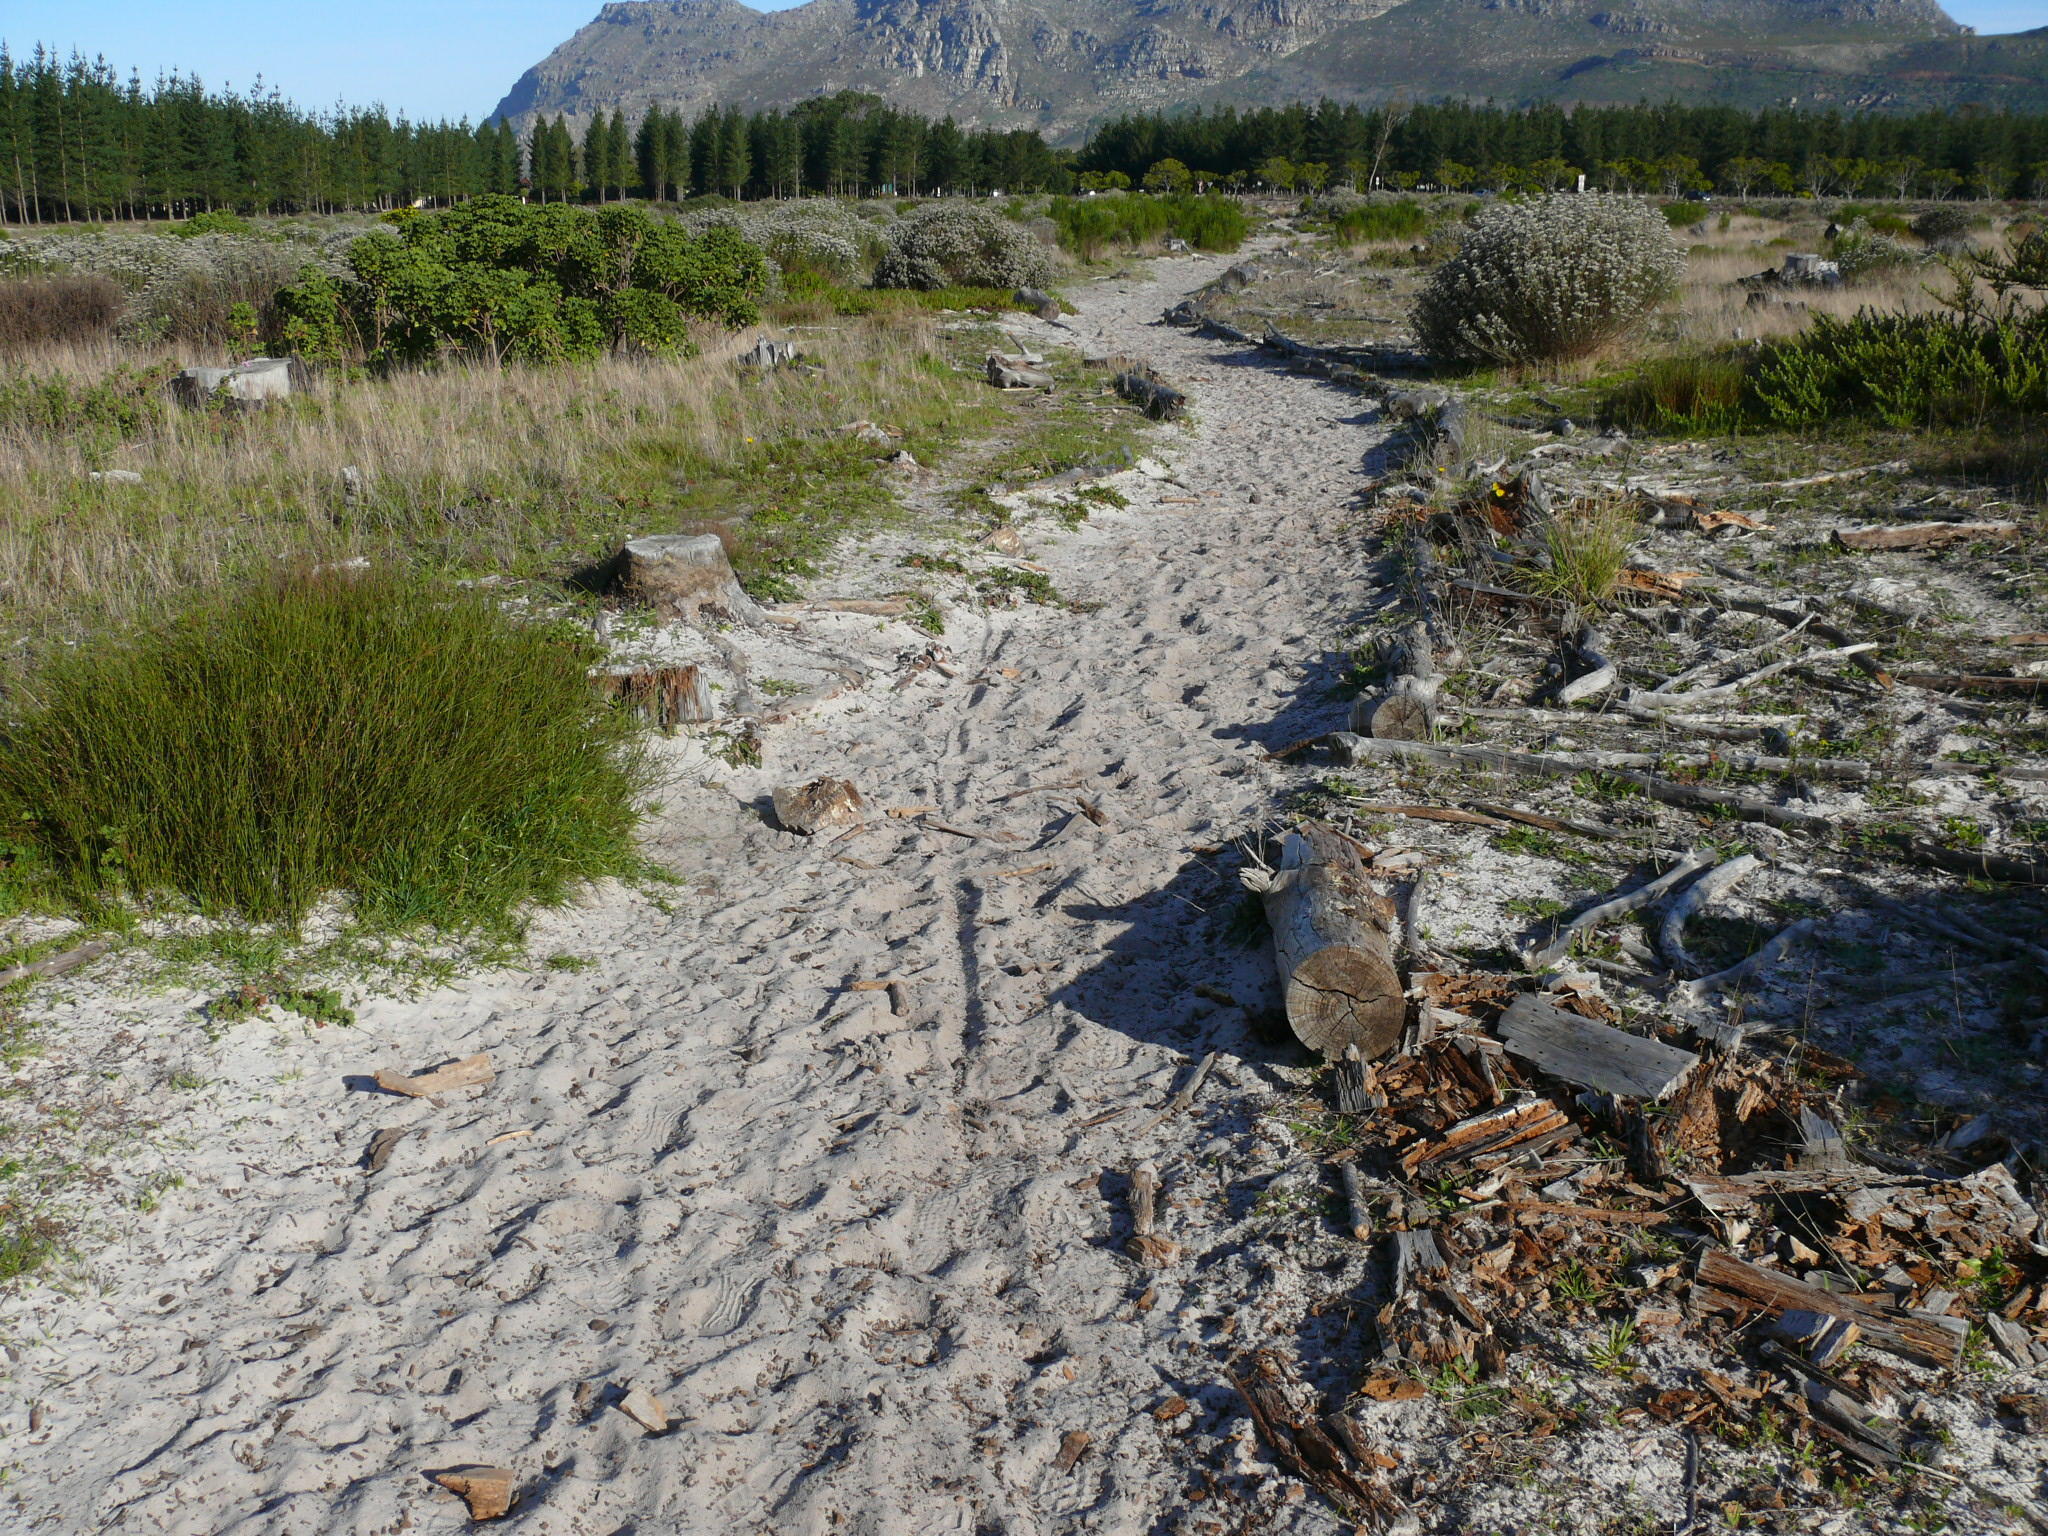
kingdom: Plantae
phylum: Tracheophyta
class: Liliopsida
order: Poales
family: Restionaceae
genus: Willdenowia
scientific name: Willdenowia sulcata
